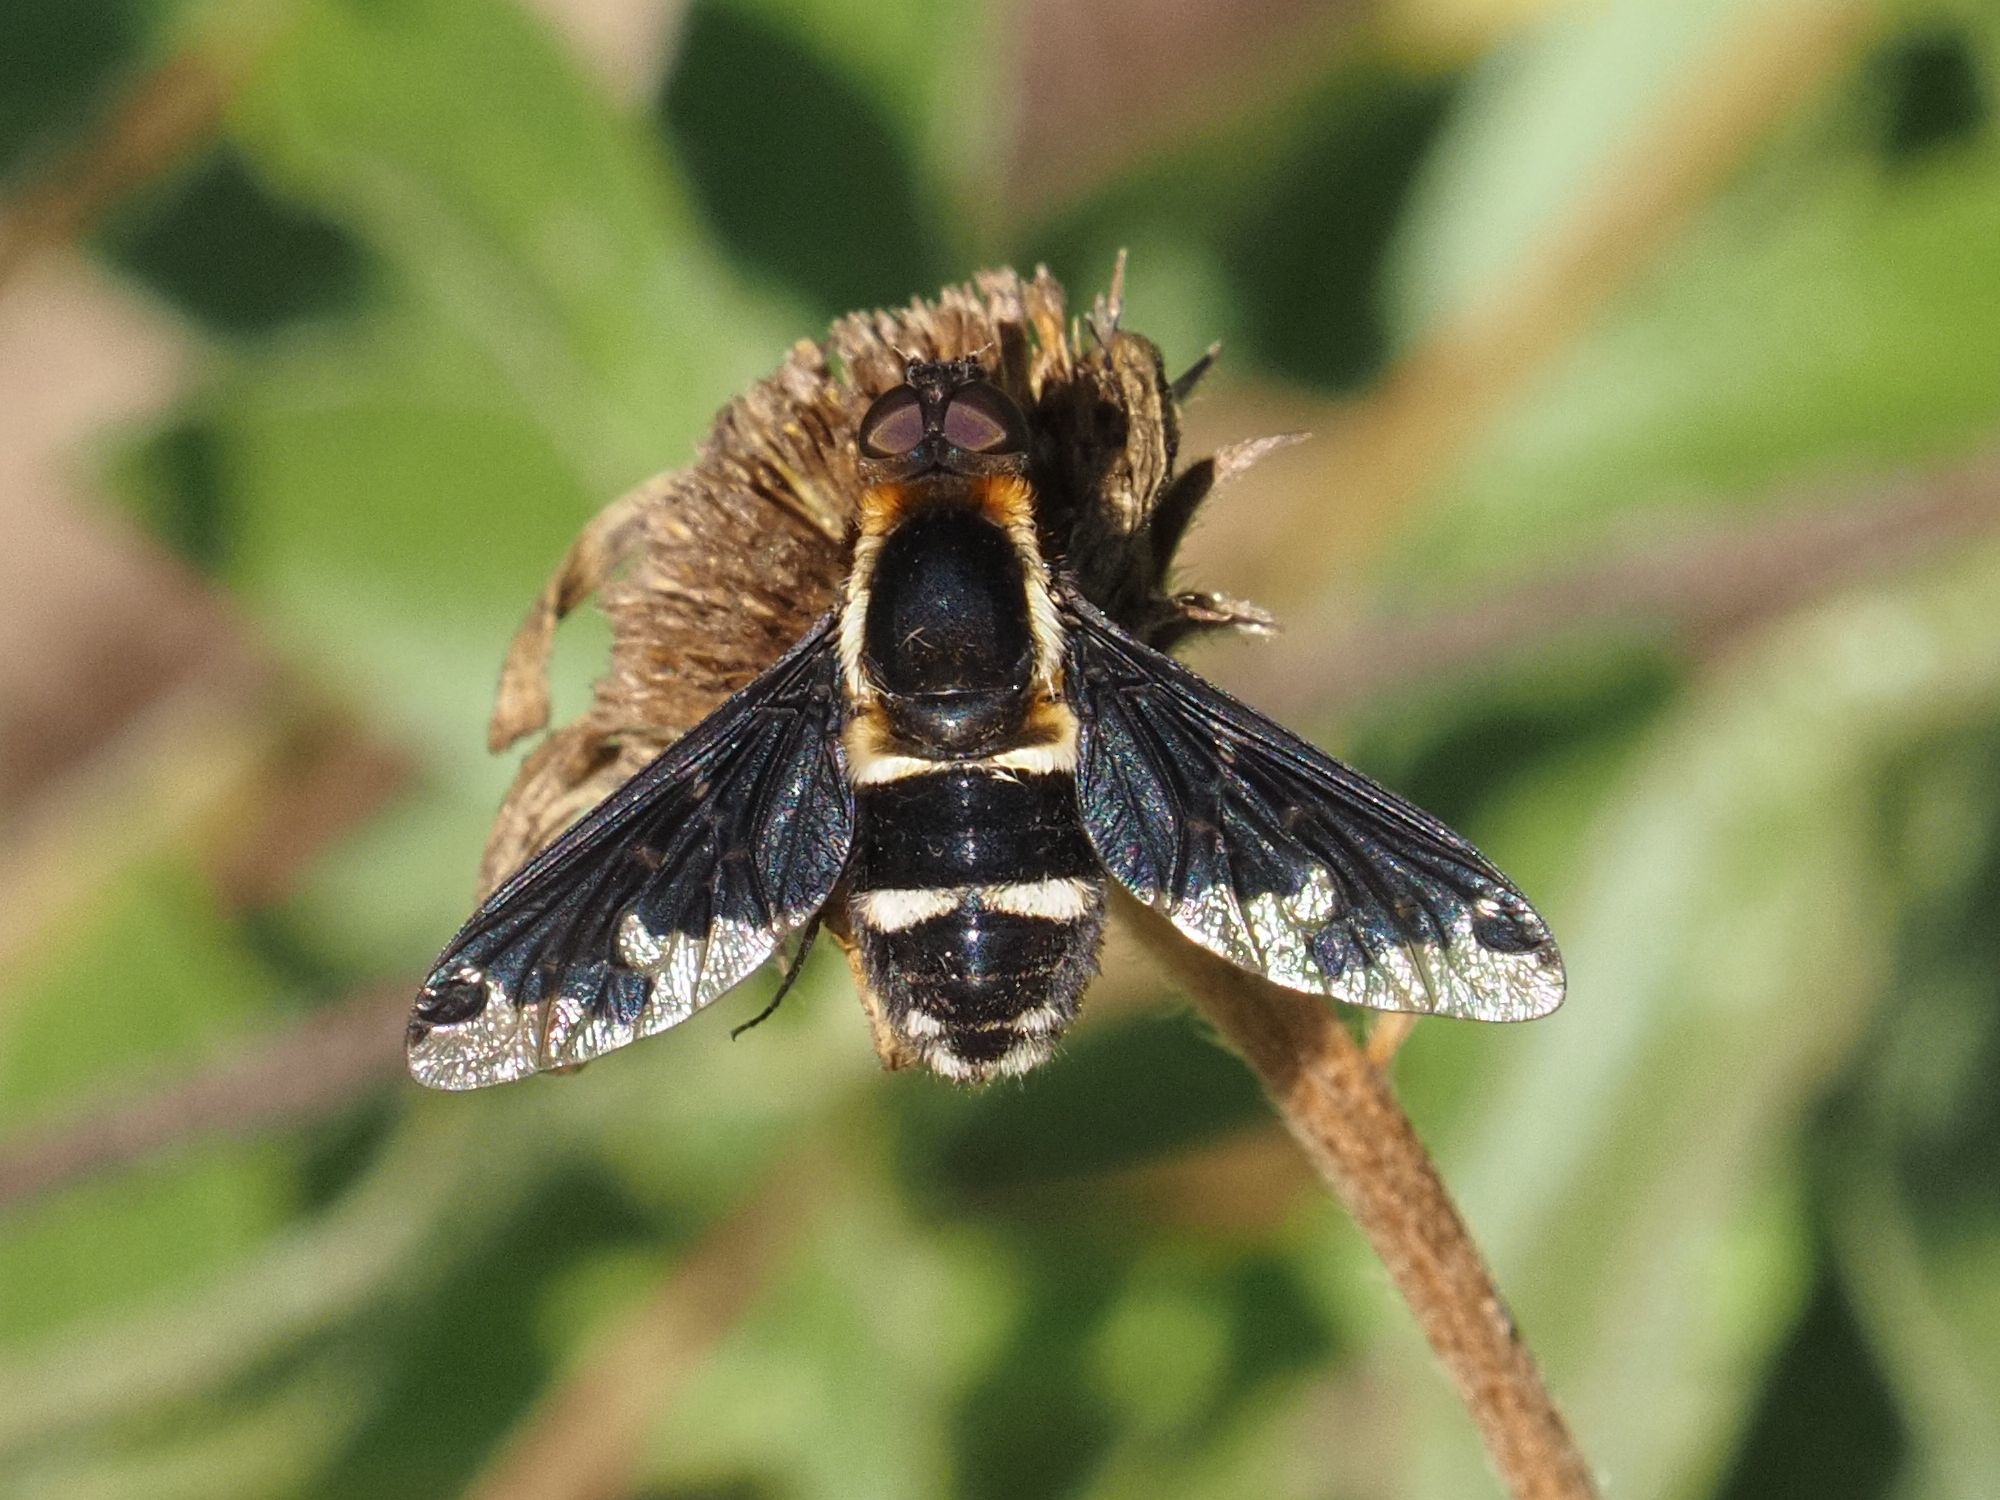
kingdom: Animalia
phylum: Arthropoda
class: Insecta
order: Diptera
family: Bombyliidae
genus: Hemipenthes
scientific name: Hemipenthes maura
